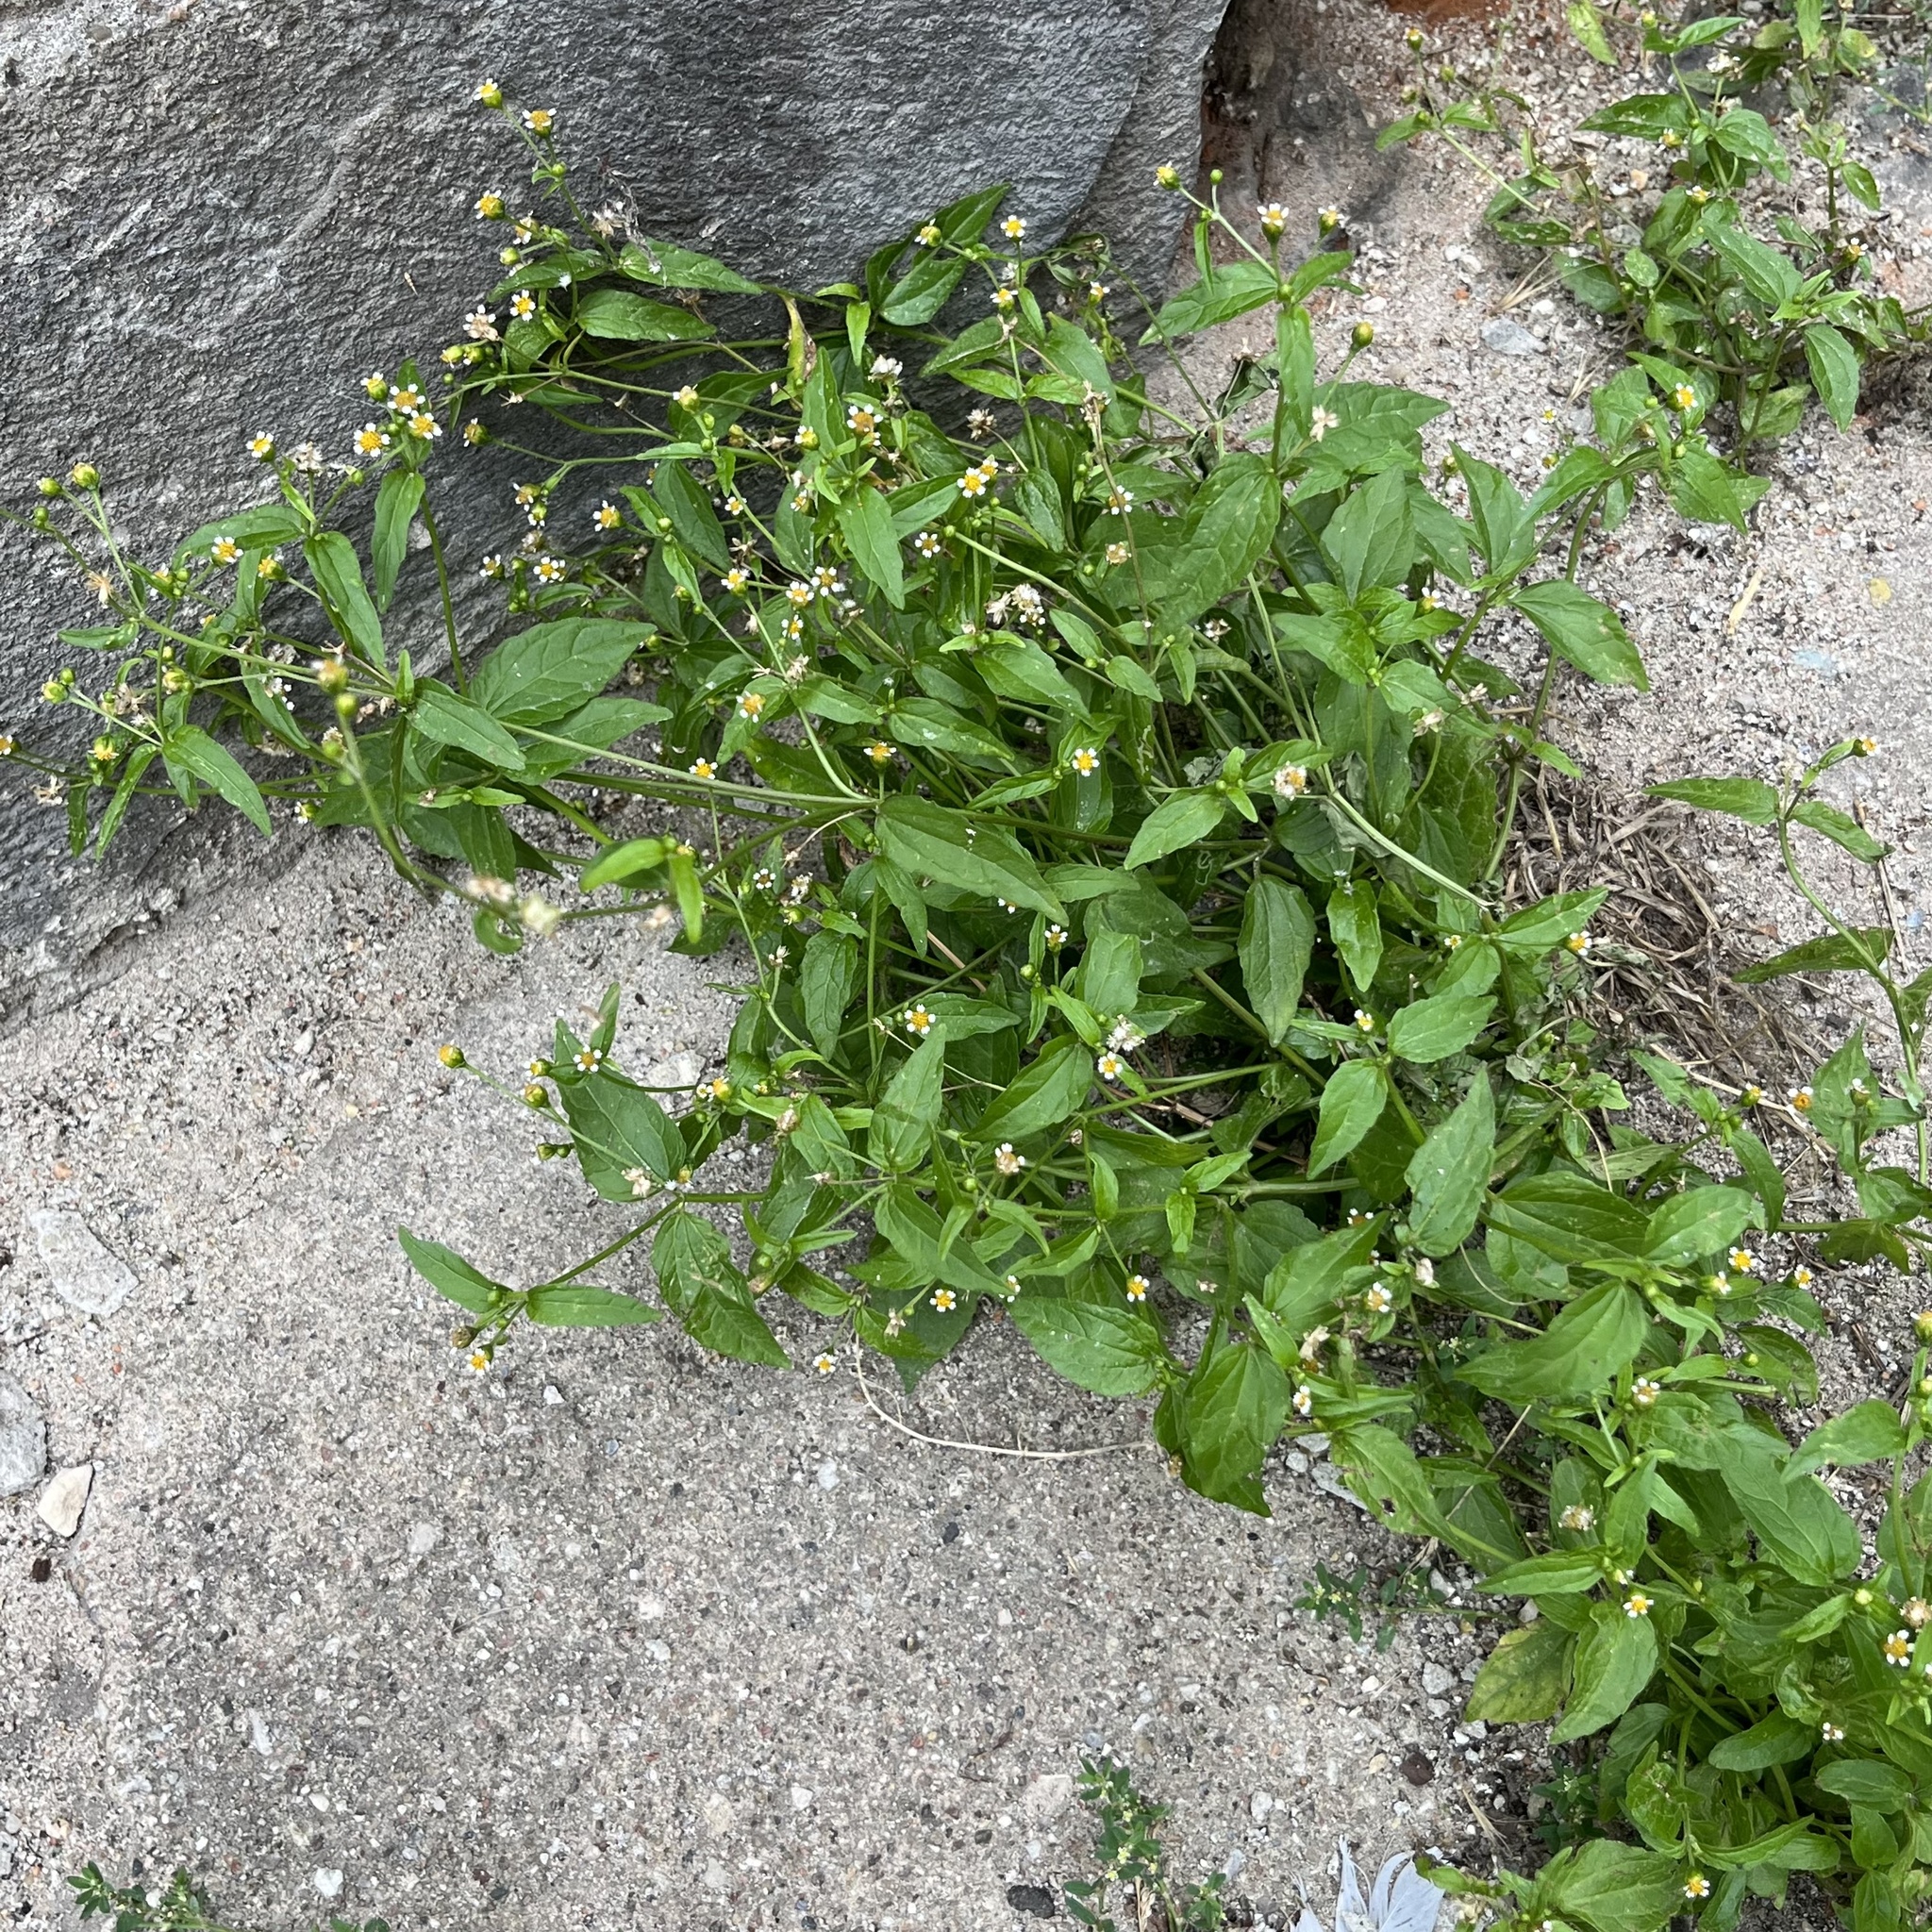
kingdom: Plantae
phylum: Tracheophyta
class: Magnoliopsida
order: Asterales
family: Asteraceae
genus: Galinsoga
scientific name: Galinsoga parviflora
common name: Gallant soldier
